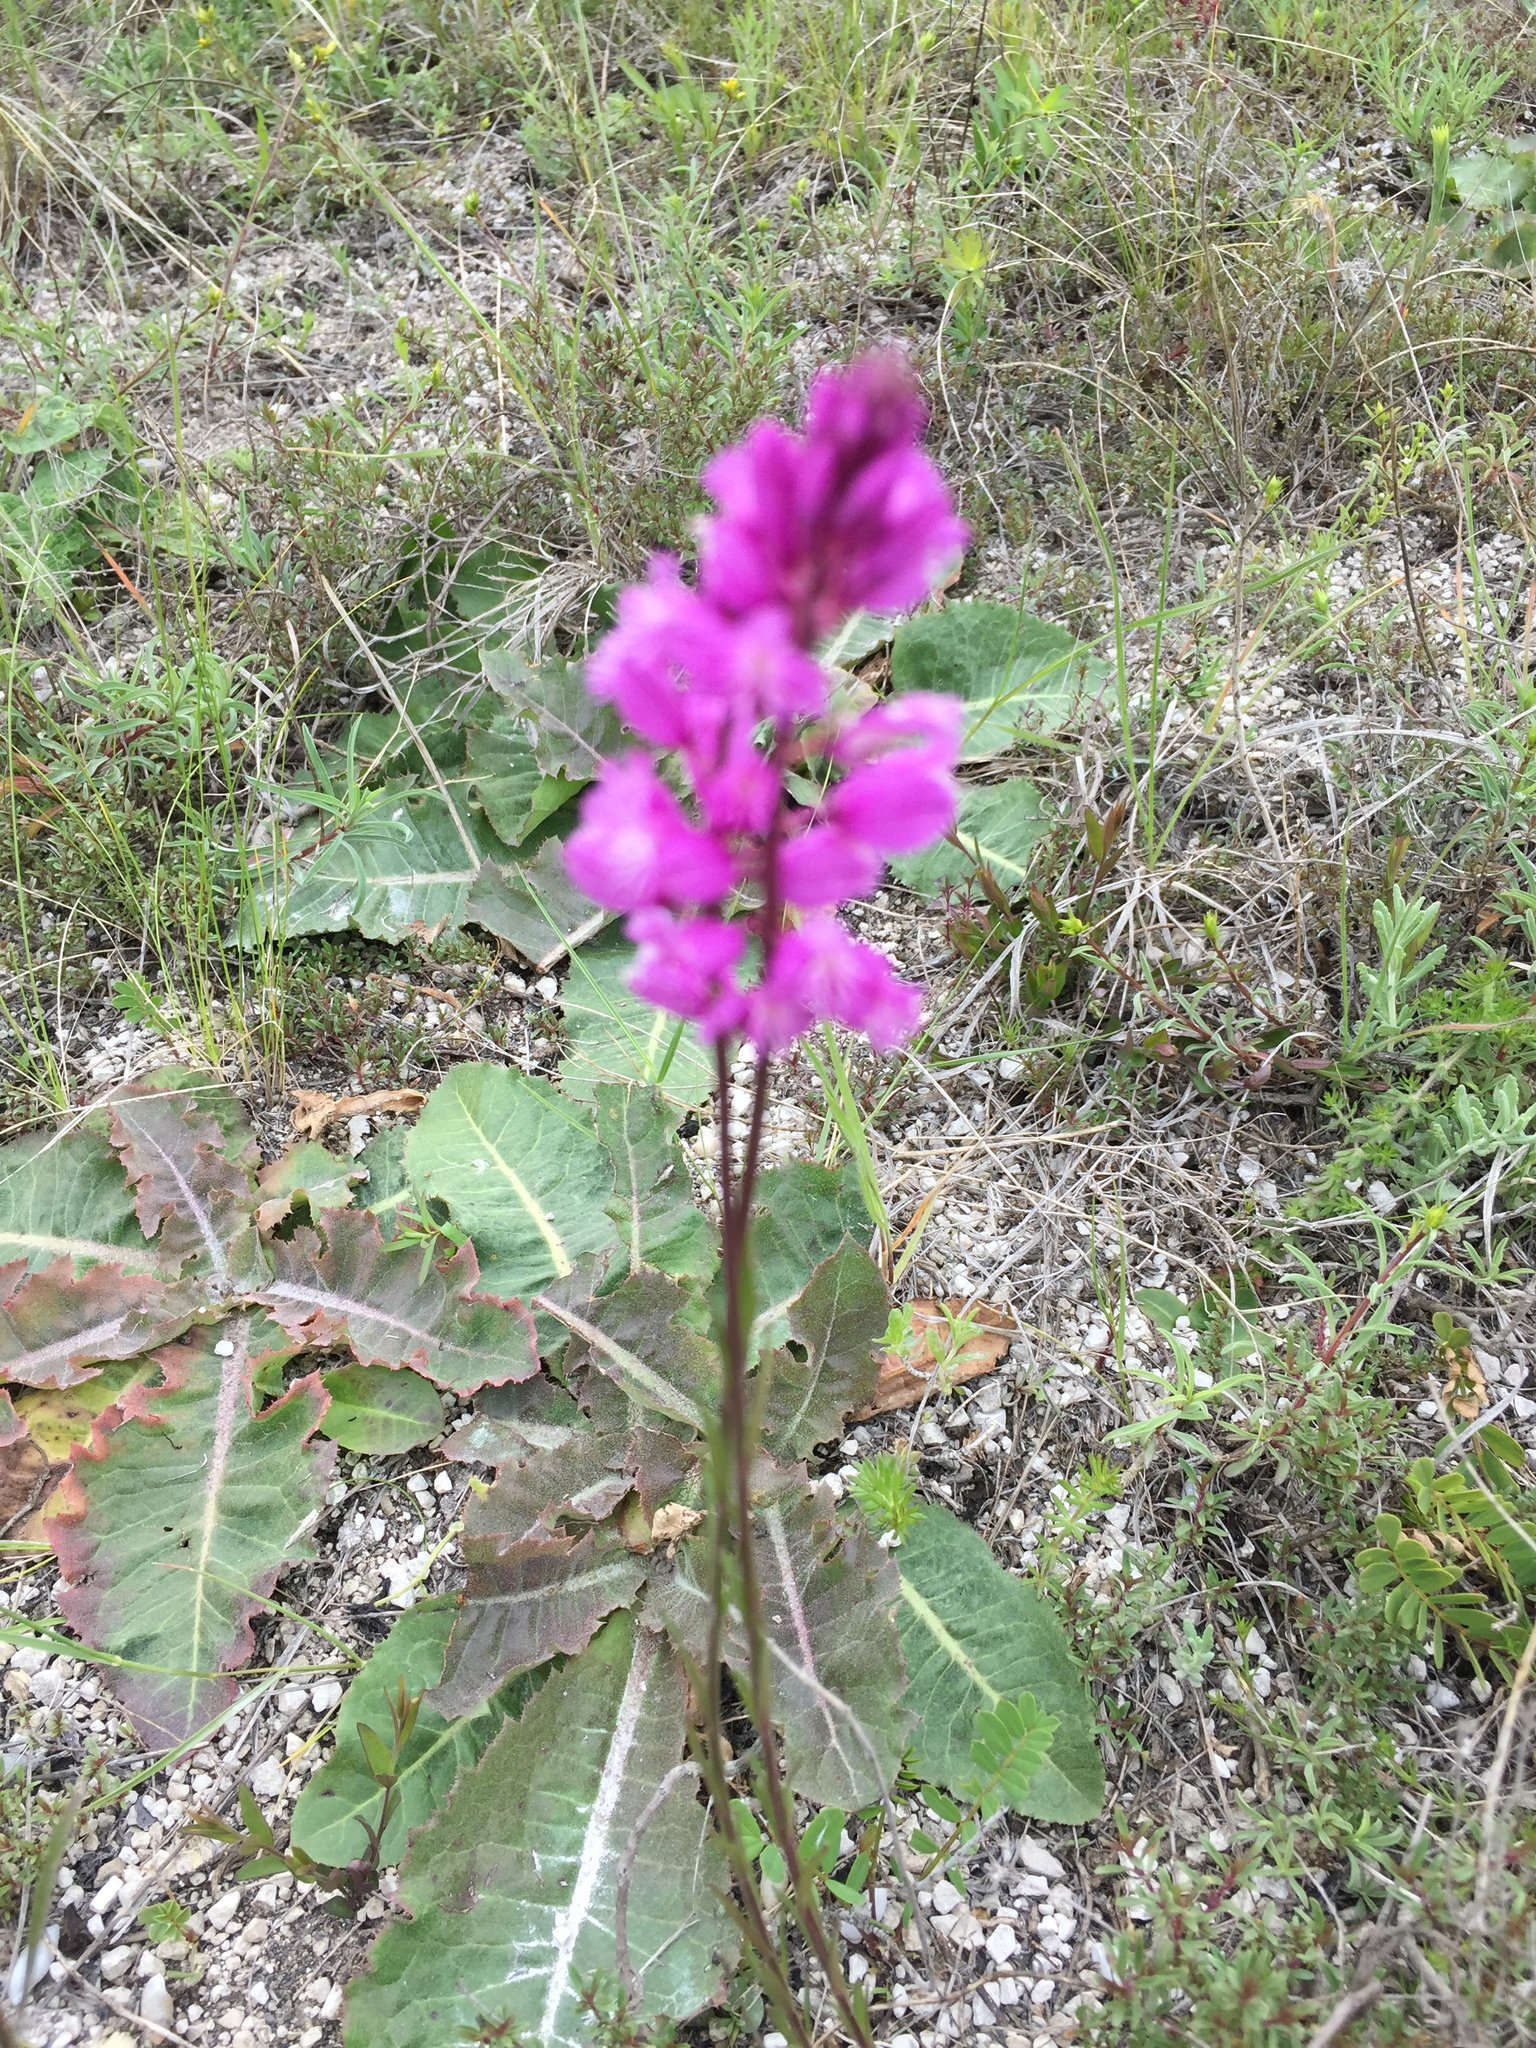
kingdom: Plantae
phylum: Tracheophyta
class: Magnoliopsida
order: Fabales
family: Polygalaceae
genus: Polygala
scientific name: Polygala nicaeensis
